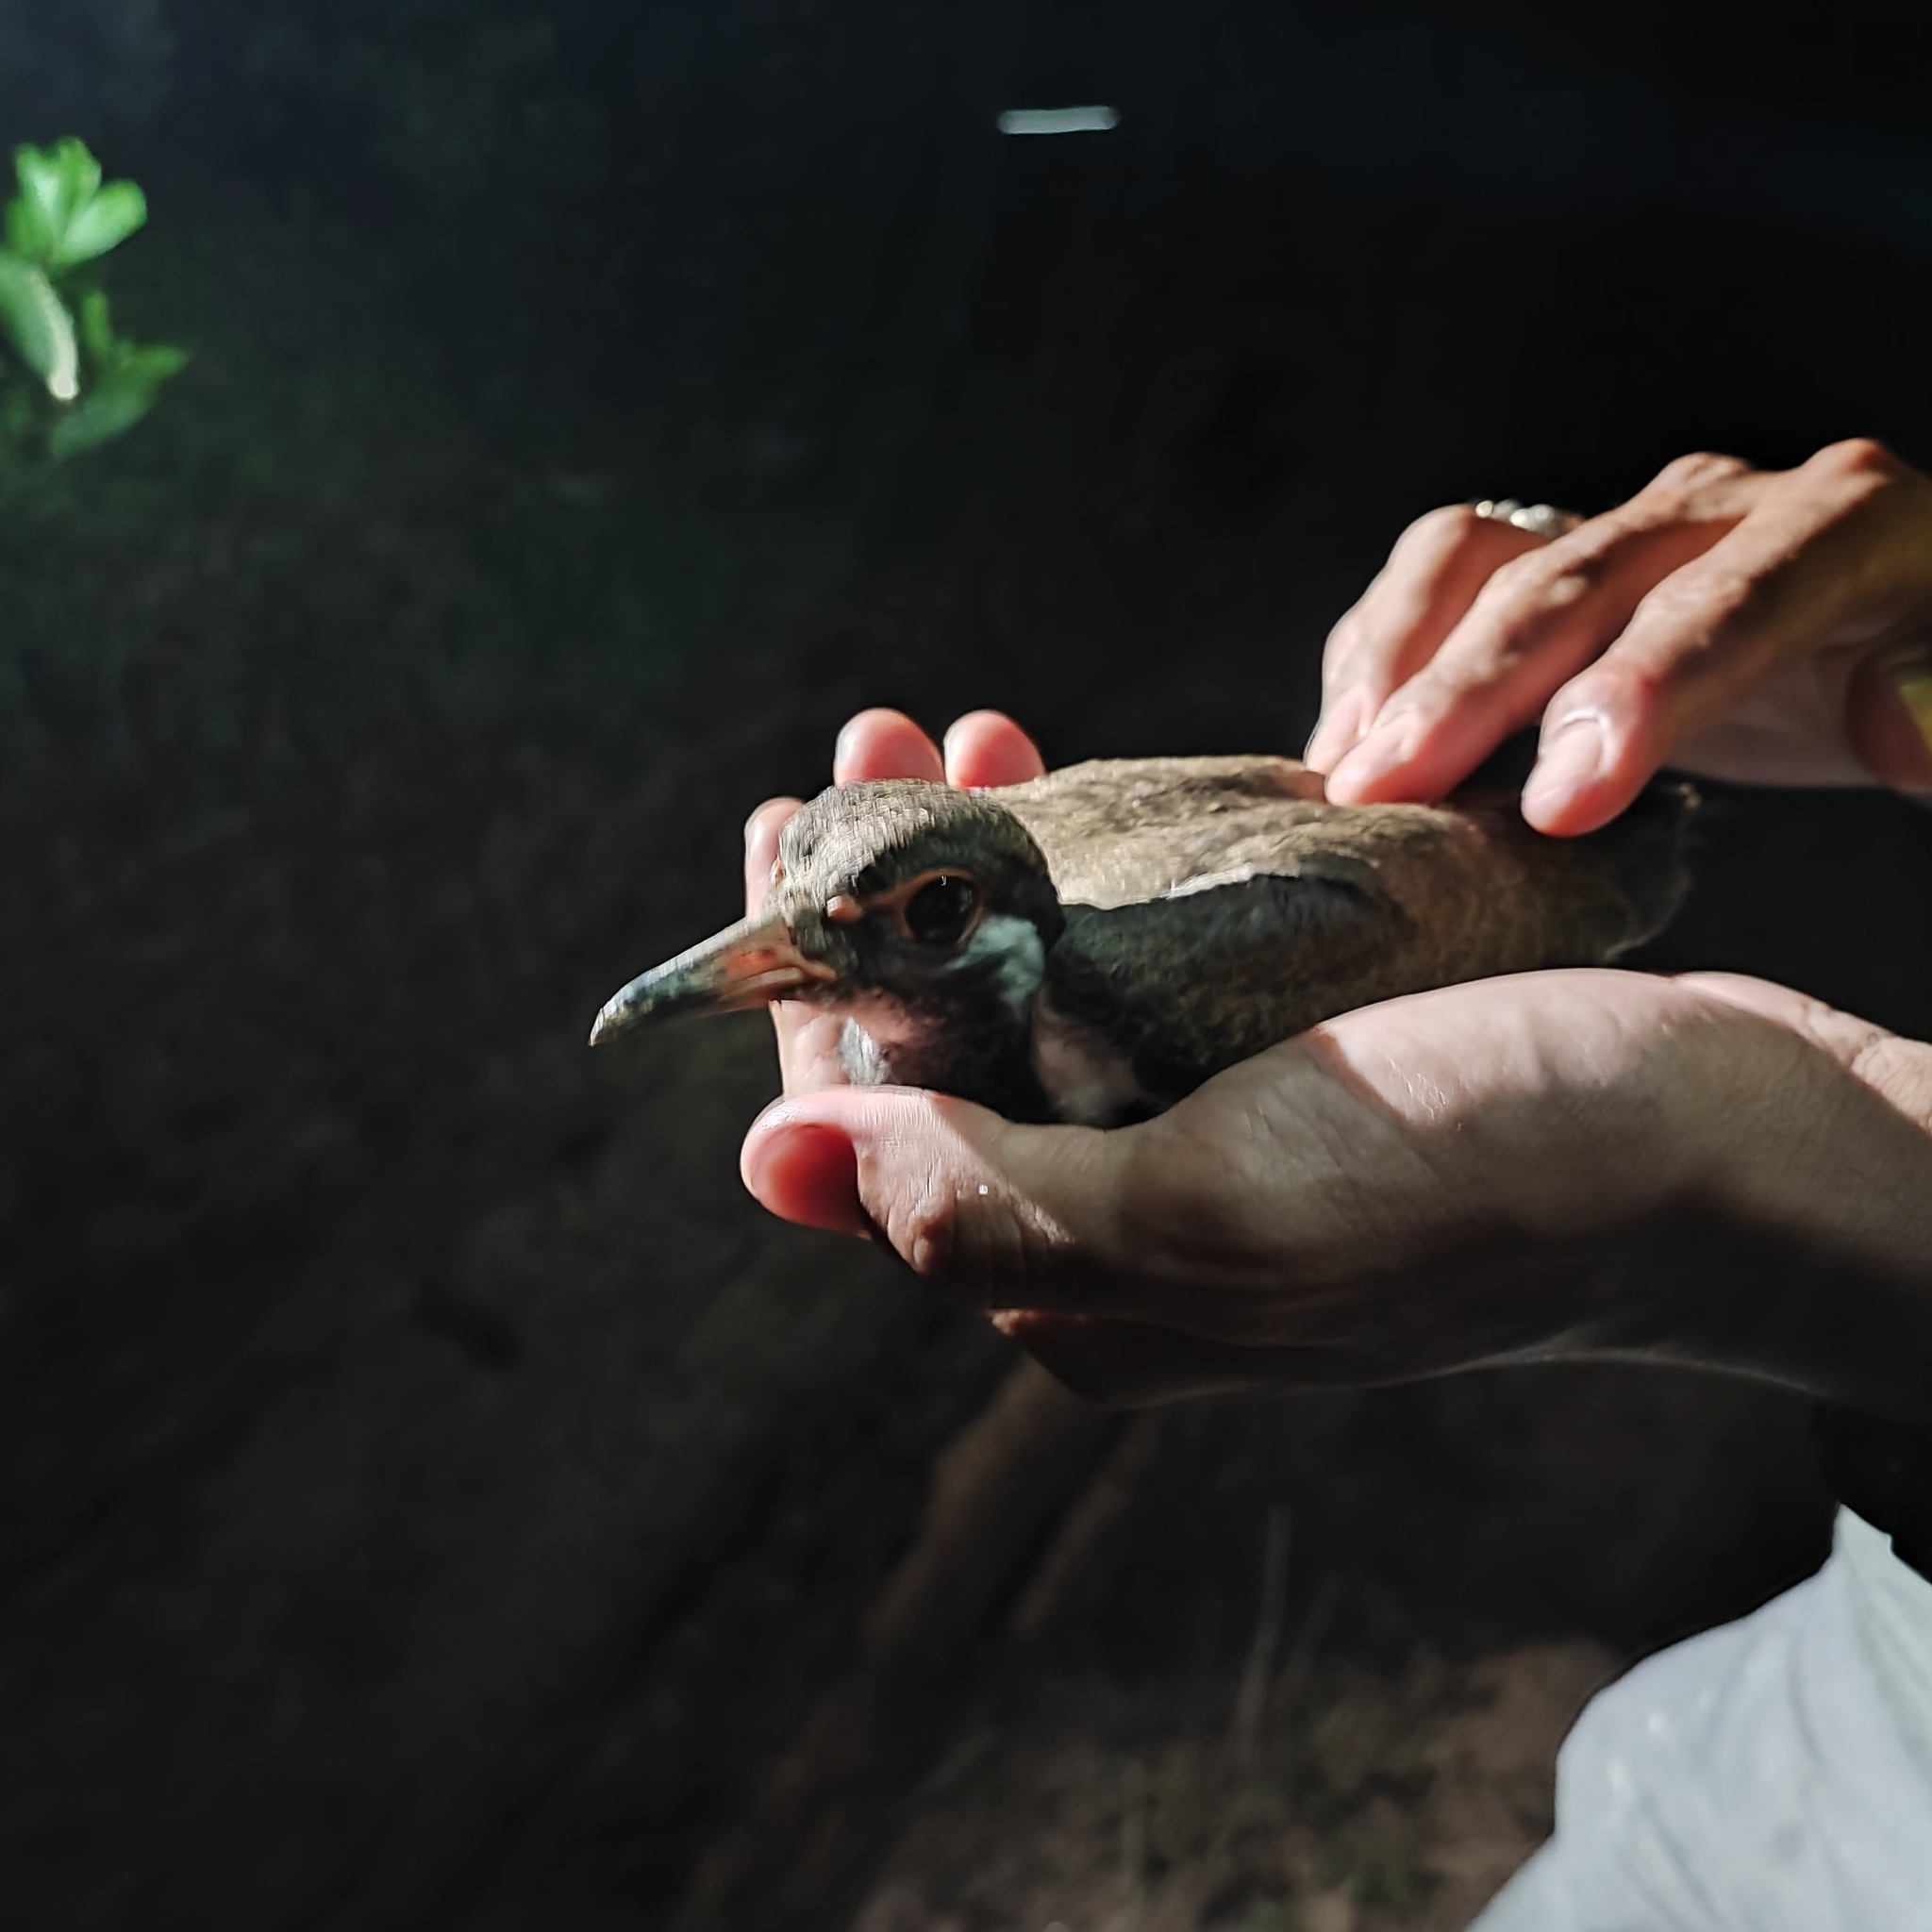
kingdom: Animalia
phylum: Chordata
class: Aves
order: Charadriiformes
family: Charadriidae
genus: Vanellus
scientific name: Vanellus indicus
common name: Red-wattled lapwing
